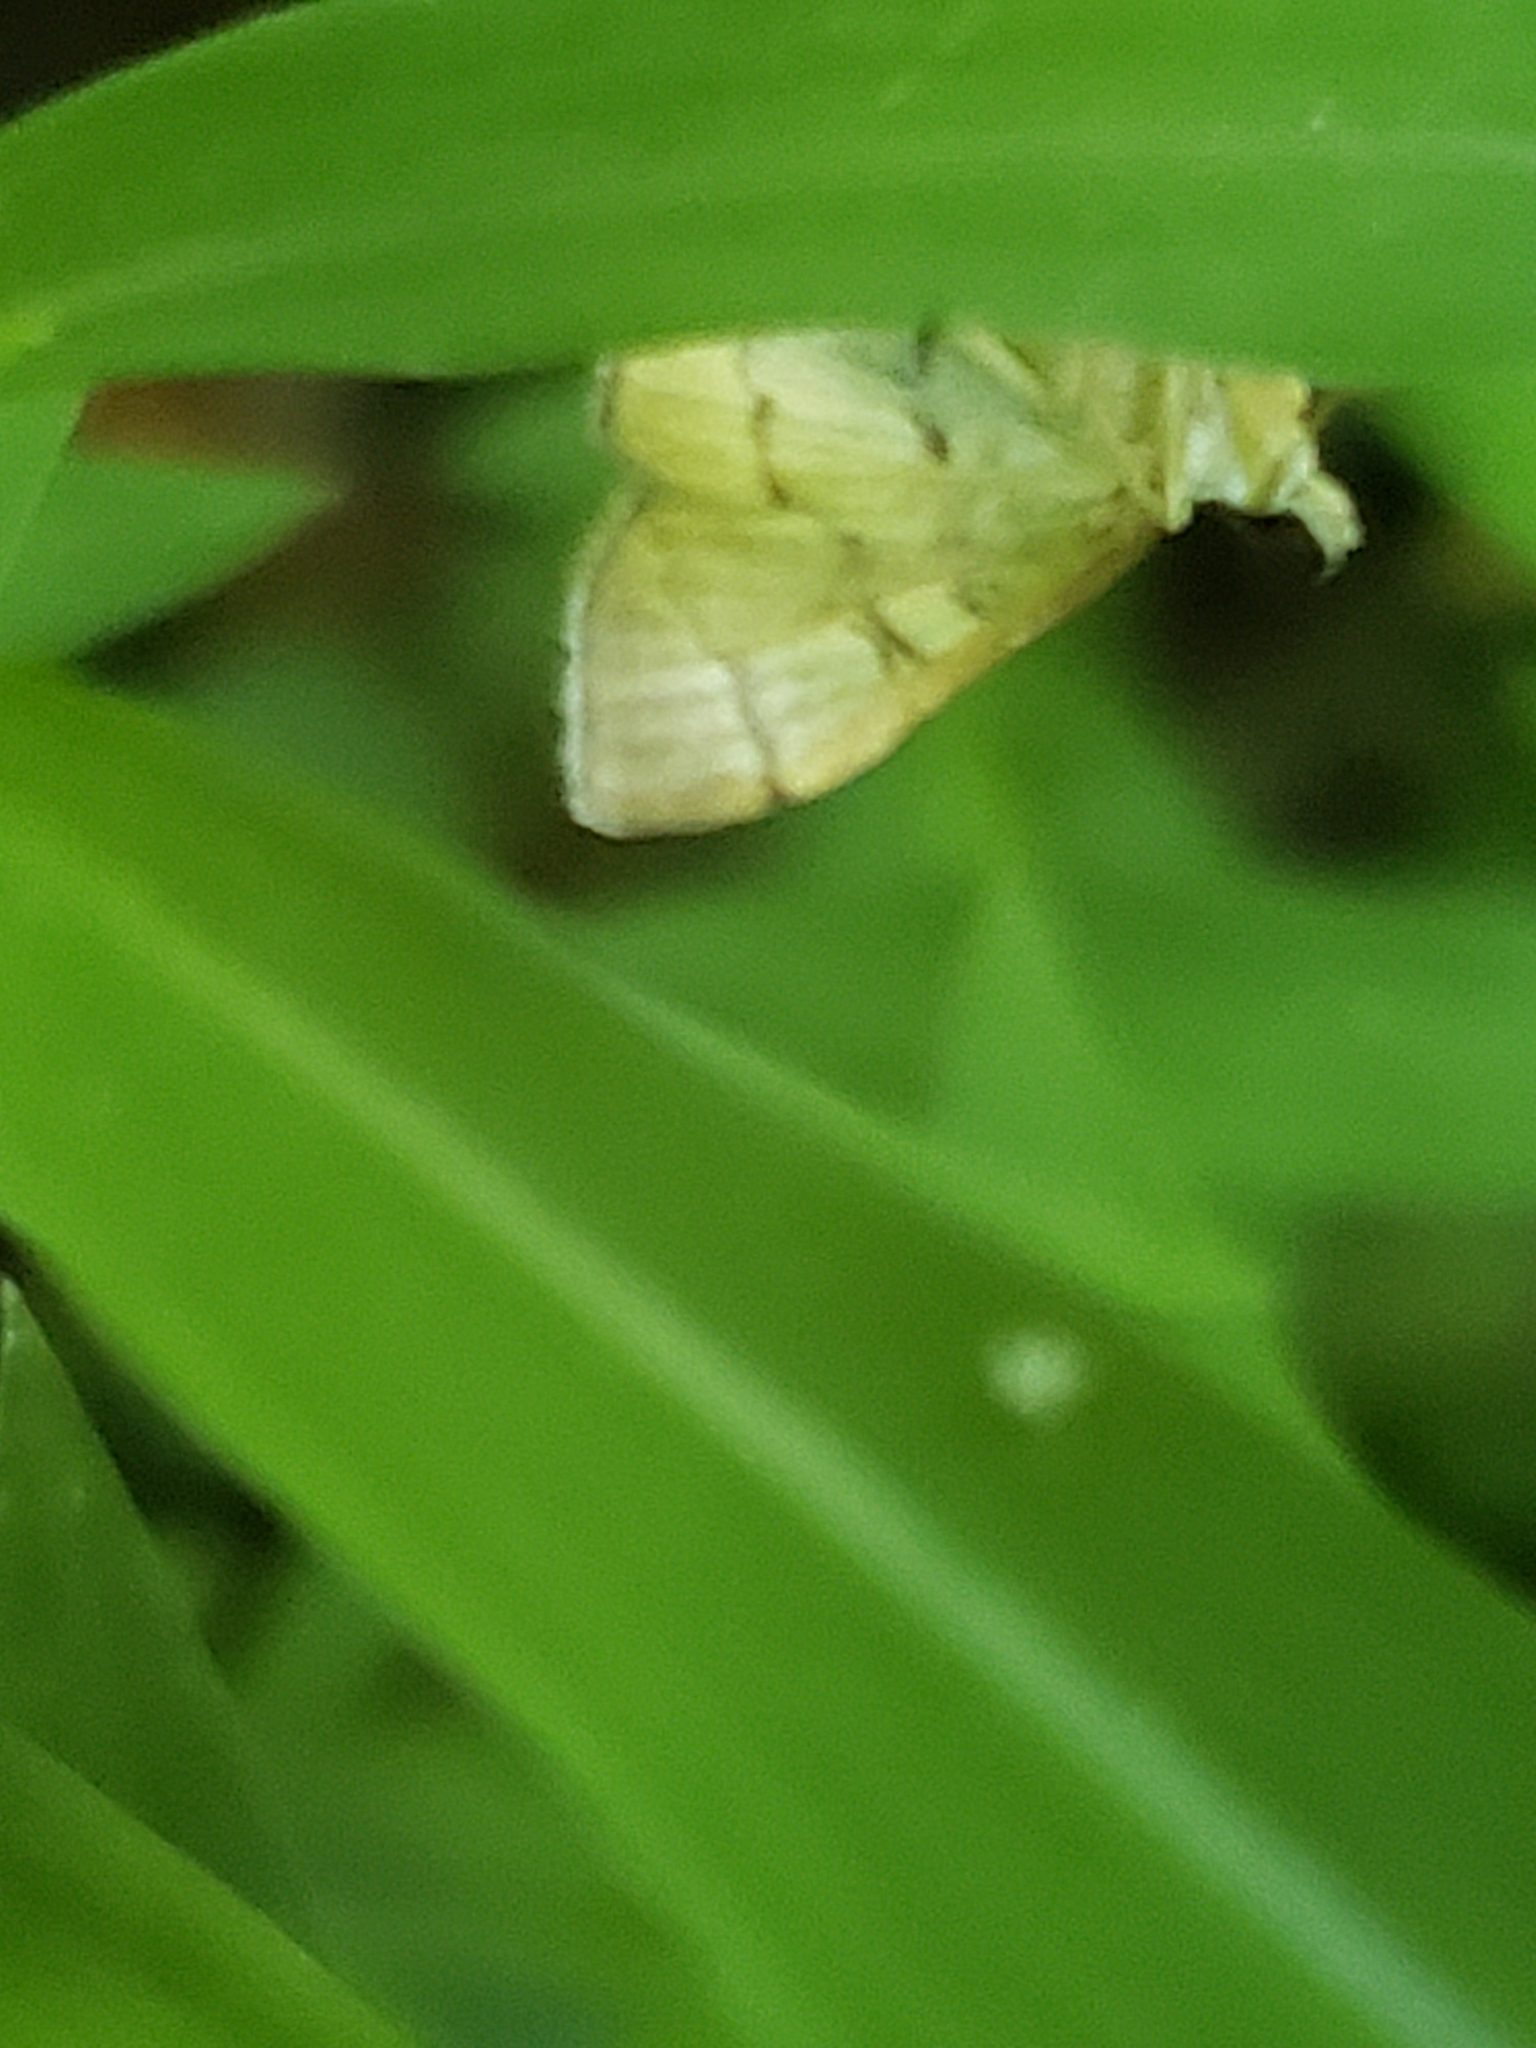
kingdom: Animalia
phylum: Arthropoda
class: Insecta
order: Lepidoptera
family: Crambidae
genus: Lamprosema
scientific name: Lamprosema Blepharomastix ranalis
